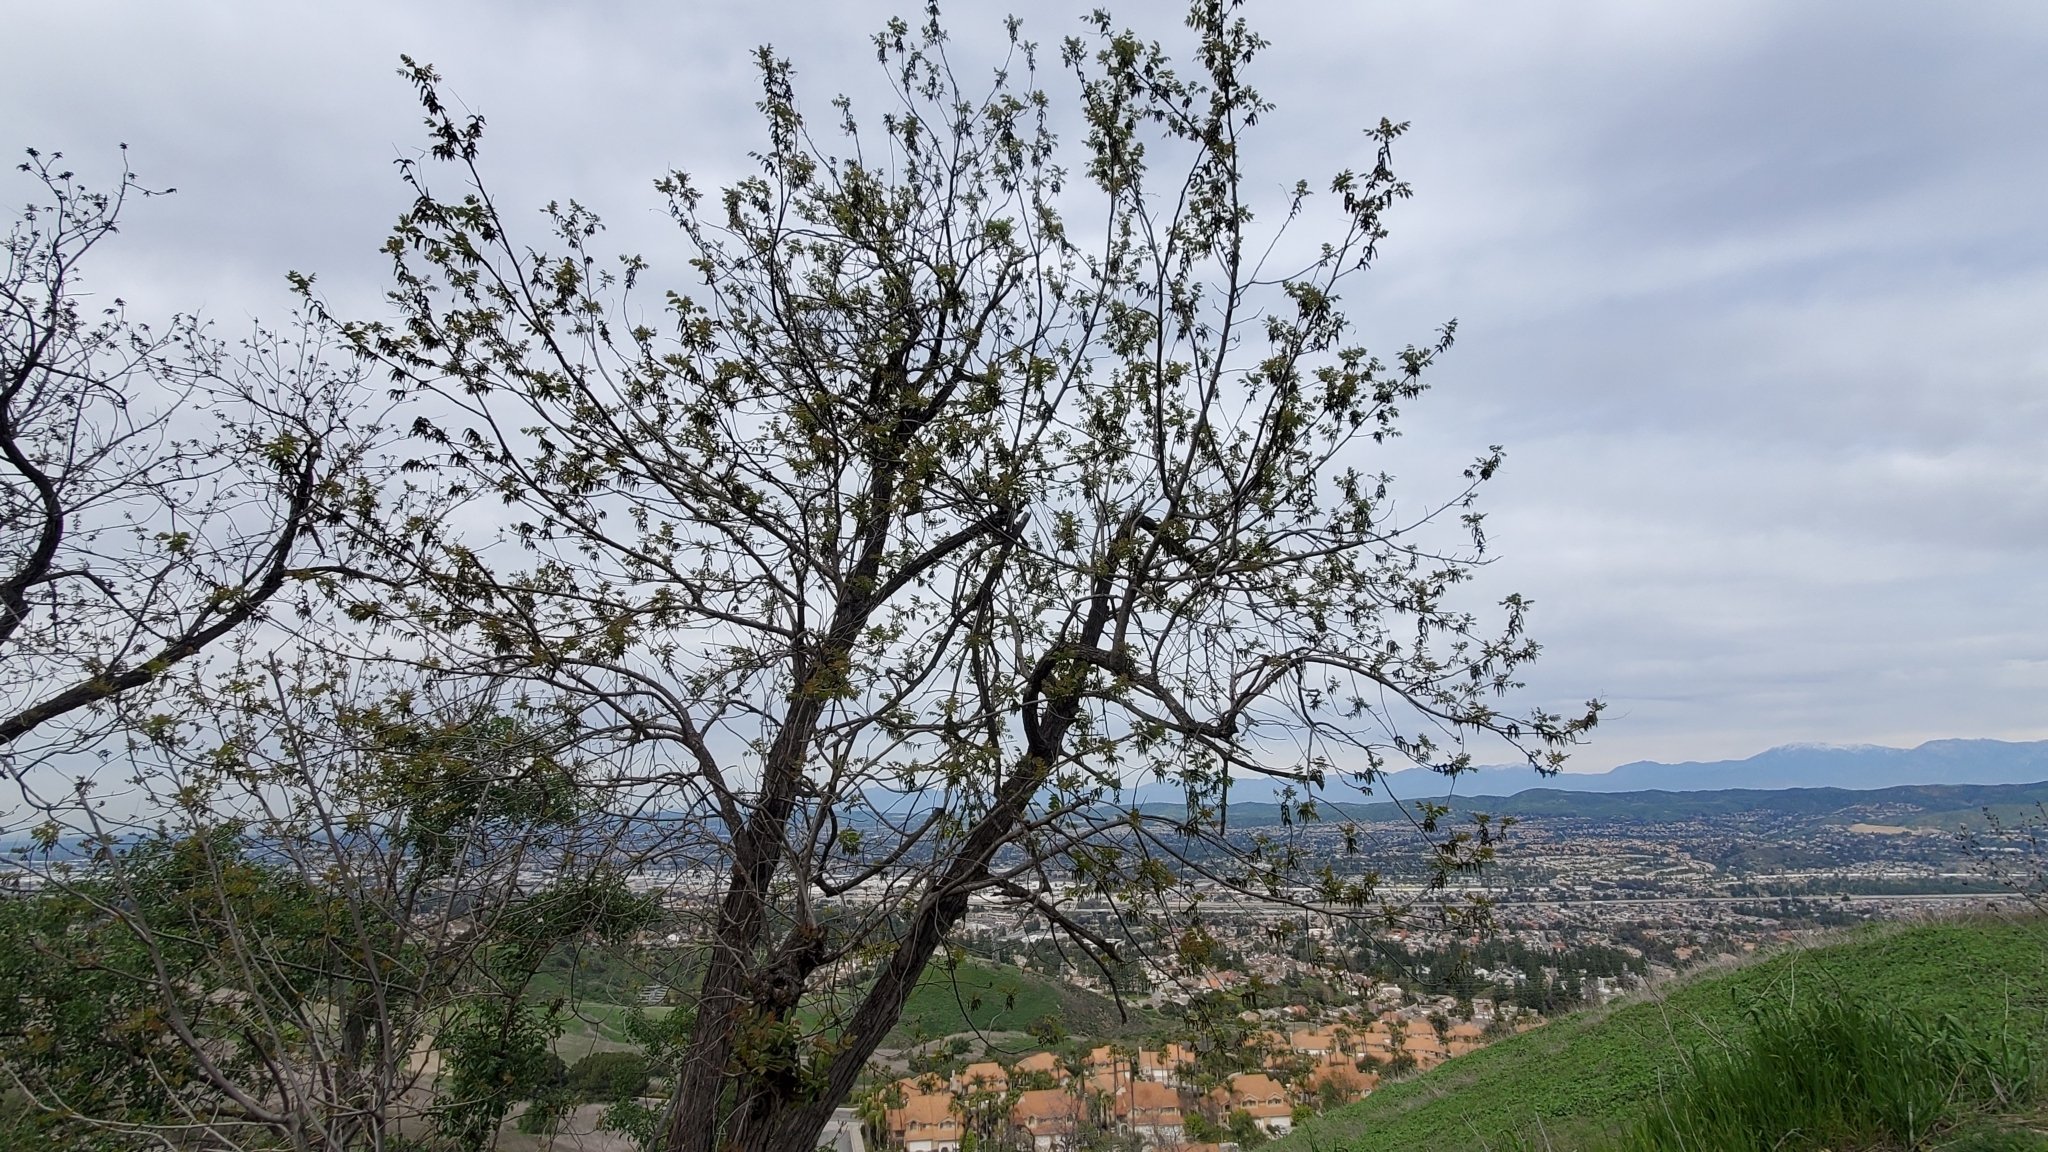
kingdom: Plantae
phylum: Tracheophyta
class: Magnoliopsida
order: Fagales
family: Juglandaceae
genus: Juglans
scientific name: Juglans californica
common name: Southern california black walnut
